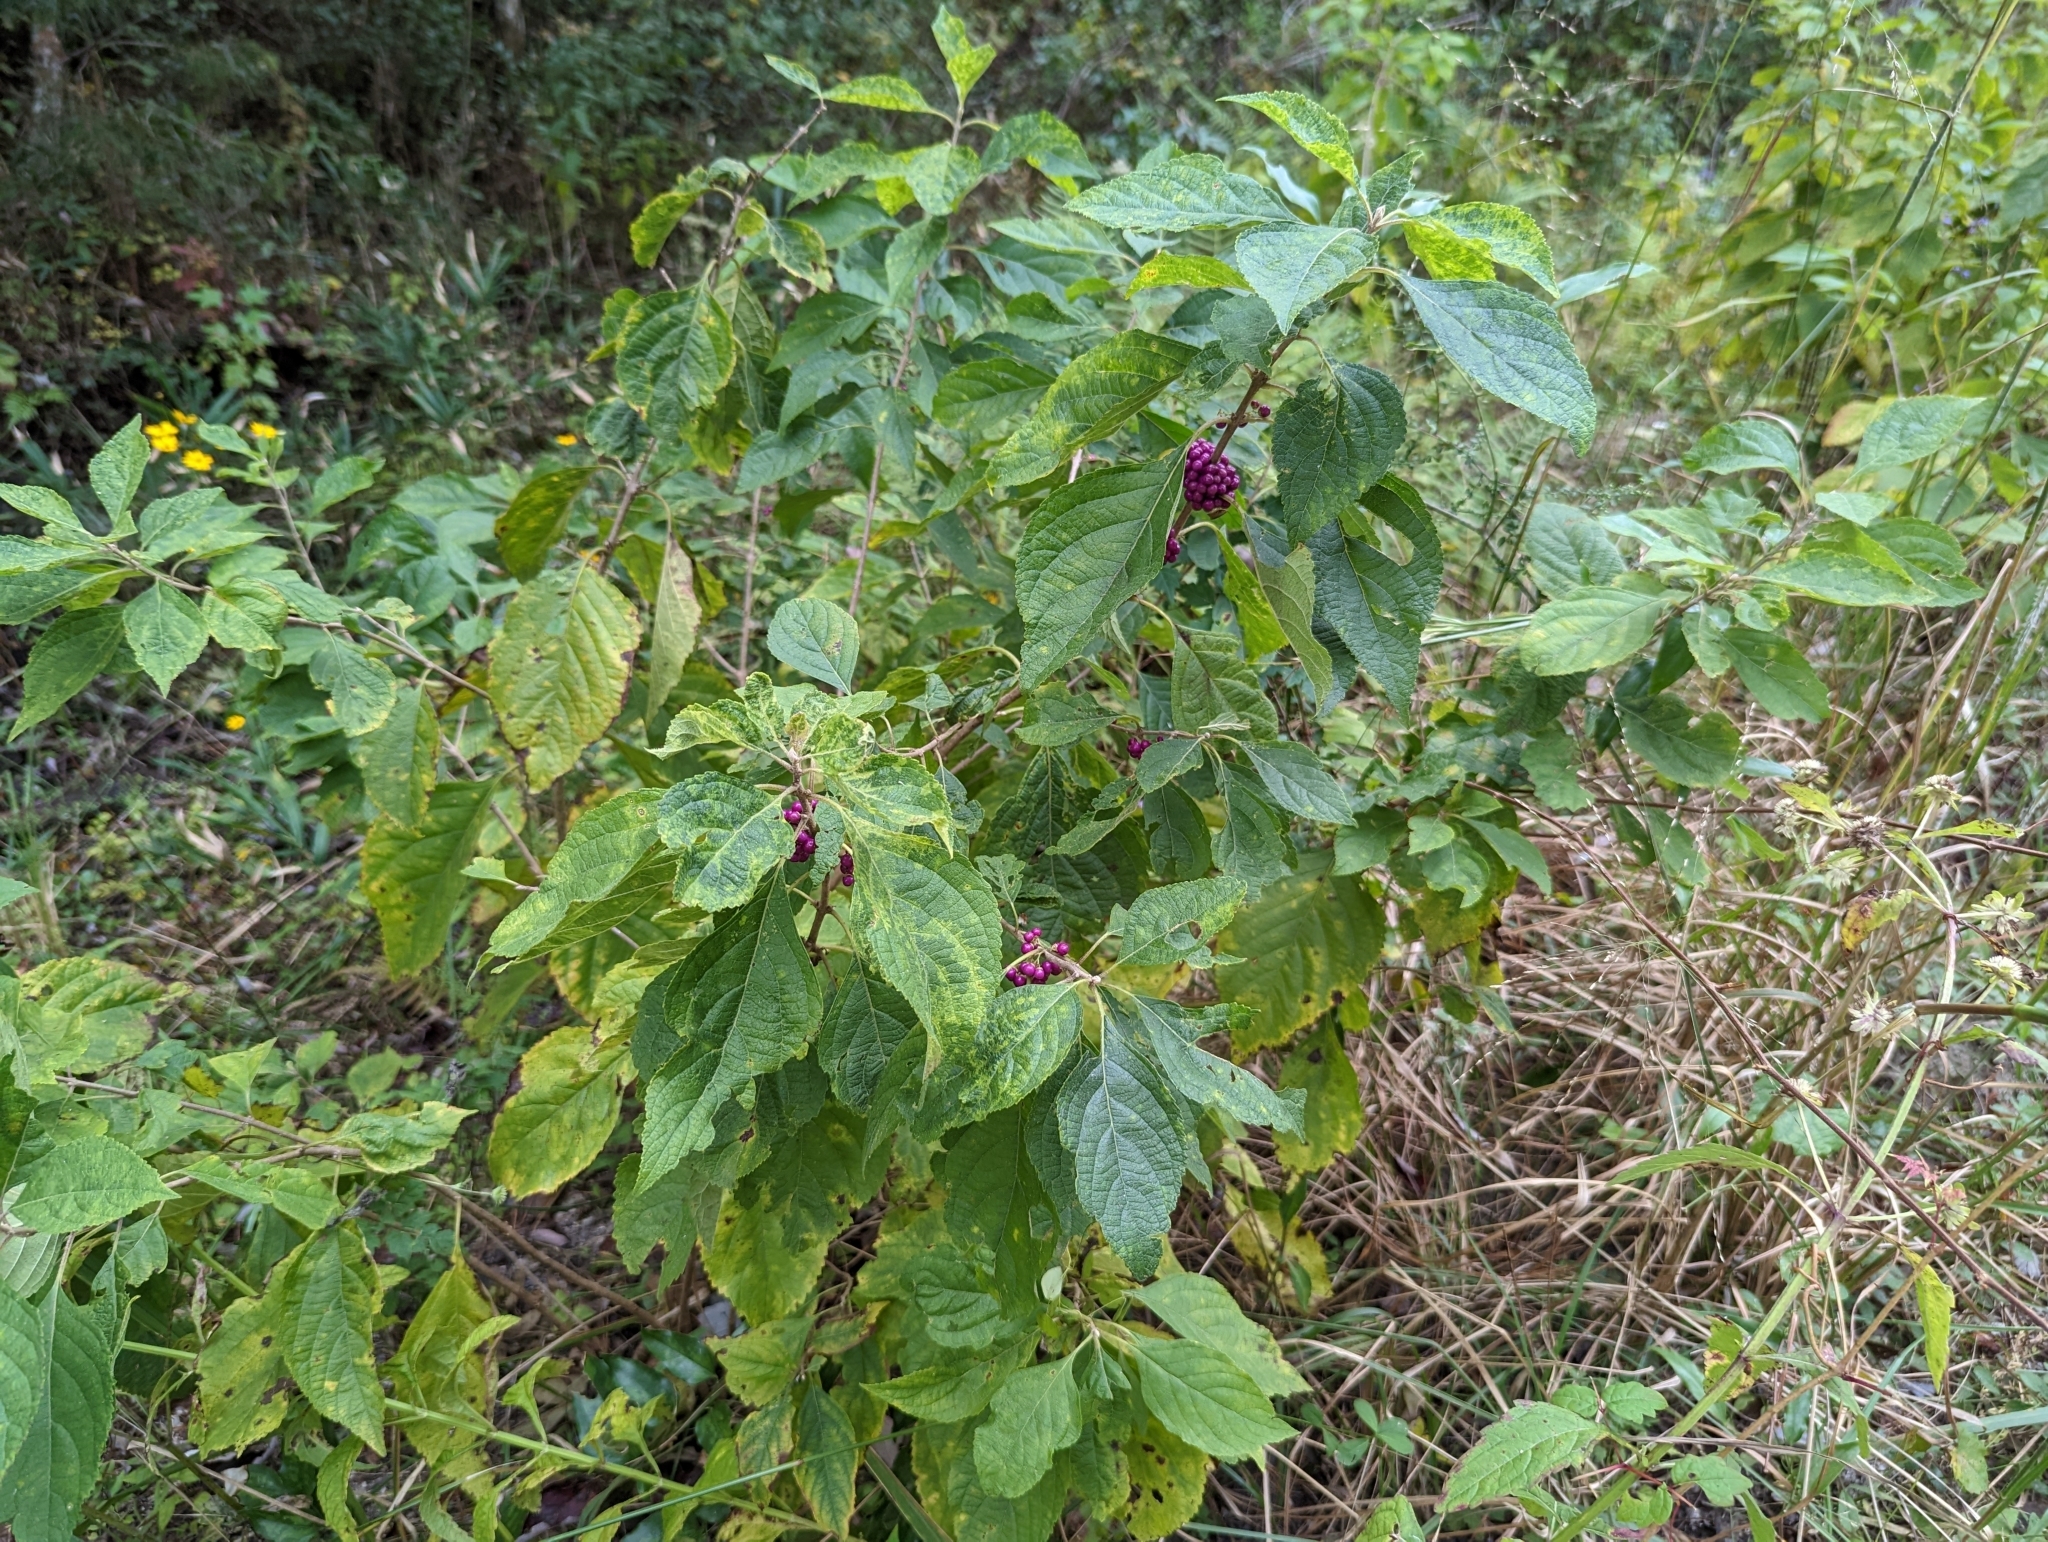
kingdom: Plantae
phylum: Tracheophyta
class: Magnoliopsida
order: Lamiales
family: Lamiaceae
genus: Callicarpa
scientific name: Callicarpa americana
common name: American beautyberry
